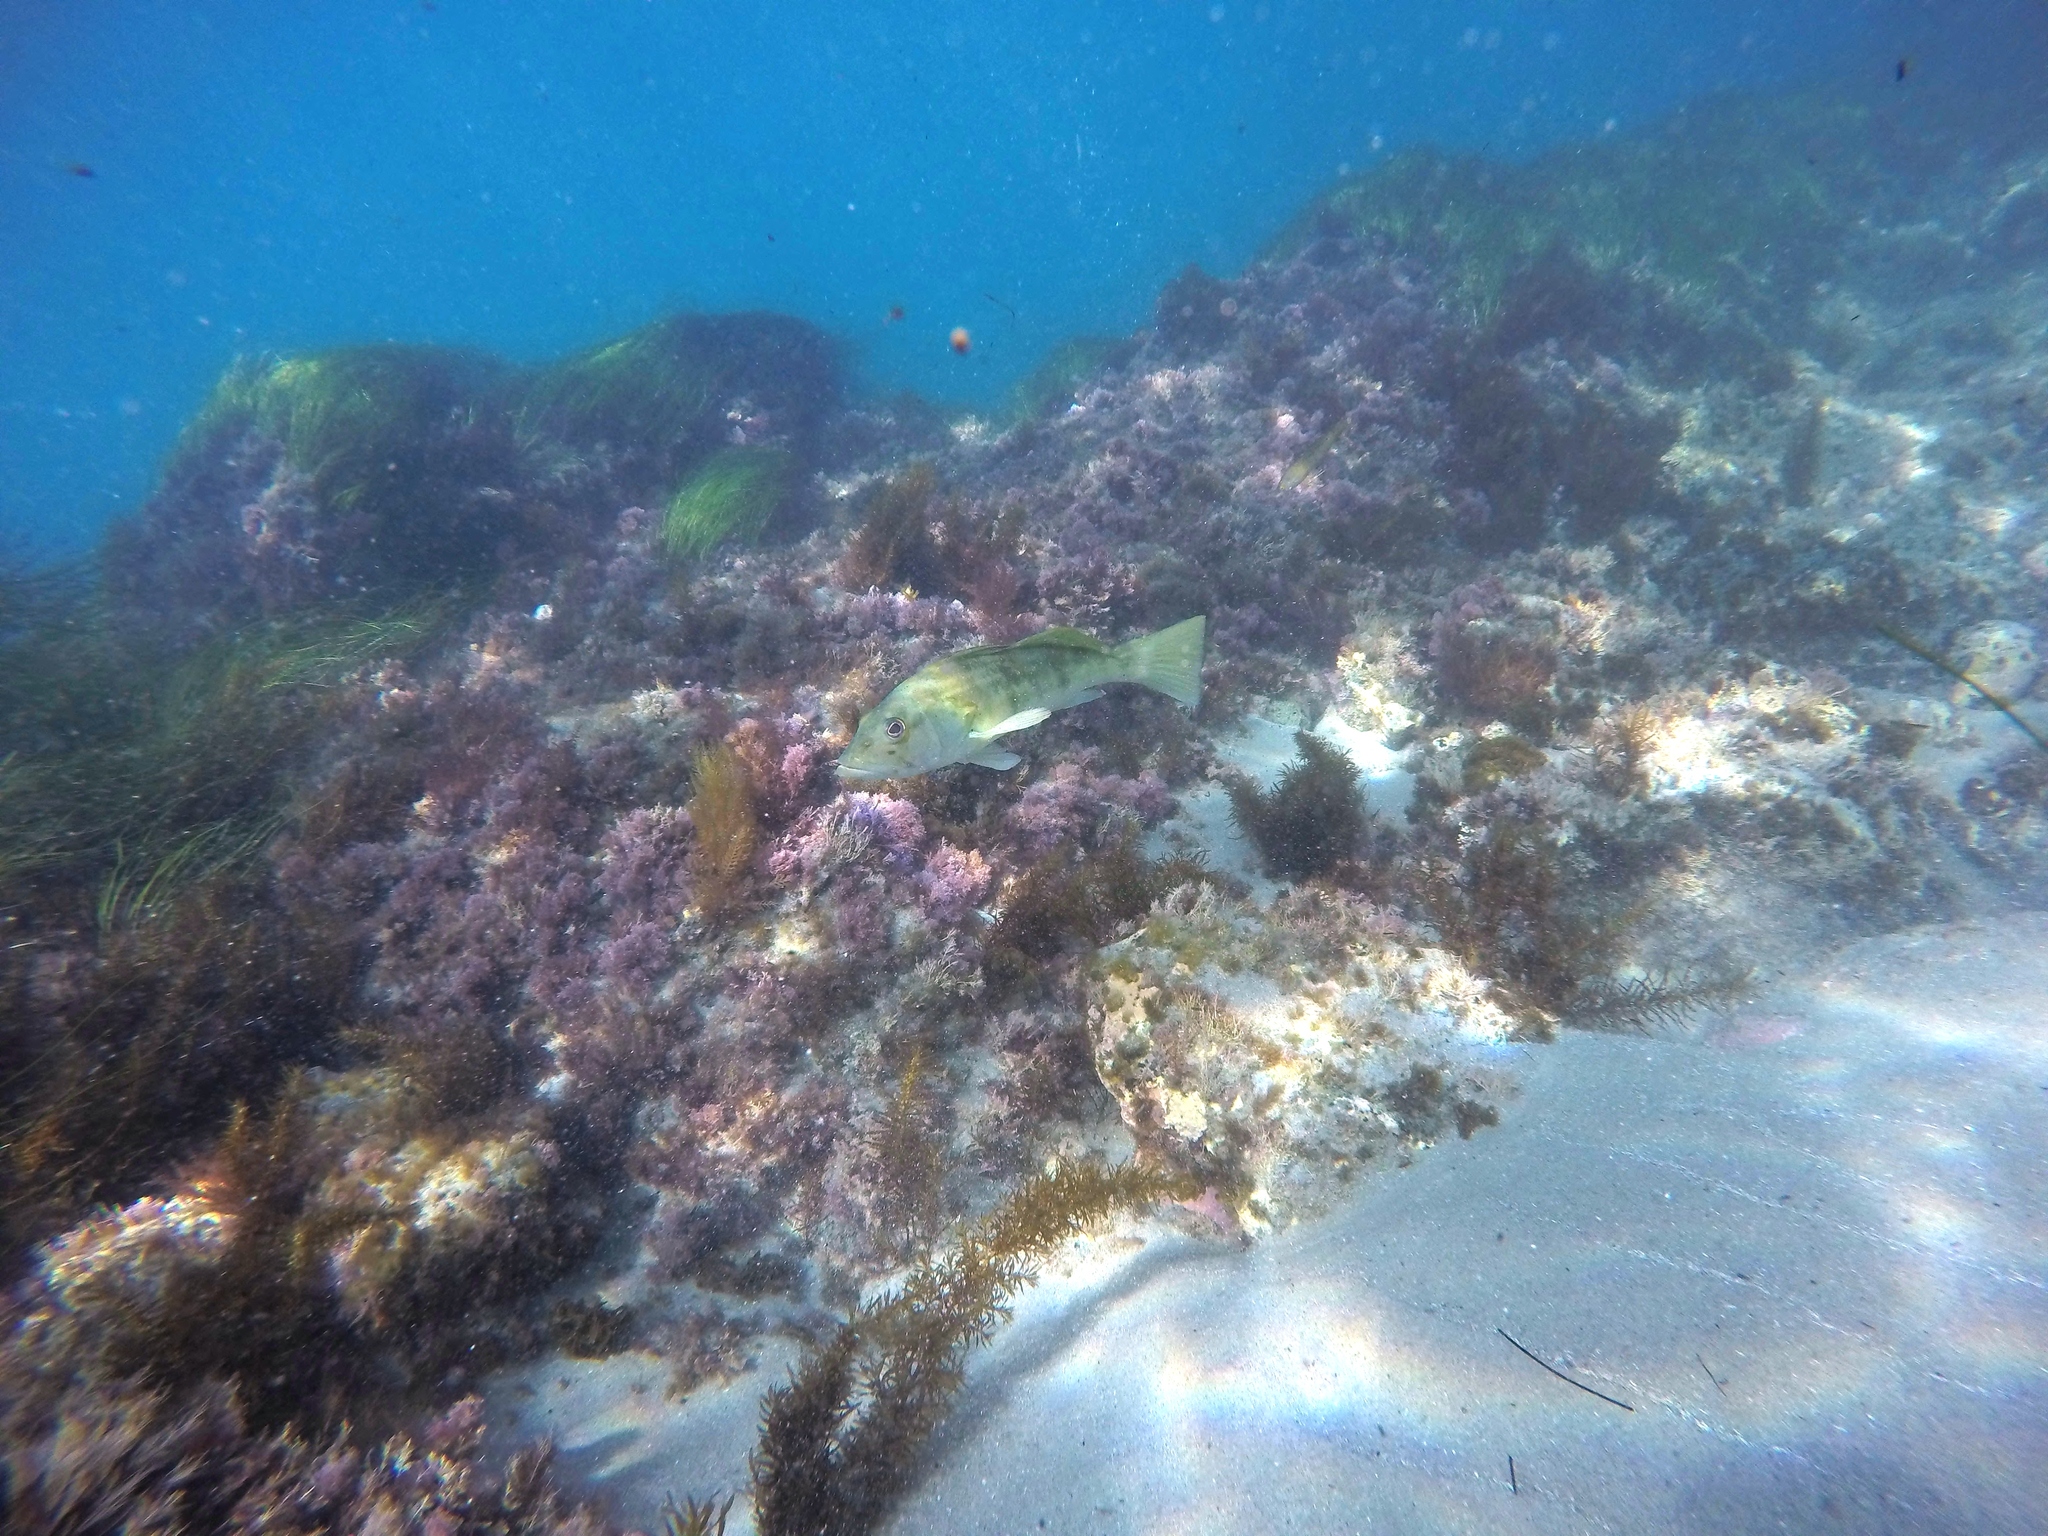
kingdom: Animalia
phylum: Chordata
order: Perciformes
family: Serranidae
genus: Paralabrax
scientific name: Paralabrax nebulifer
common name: Barred sand bass
